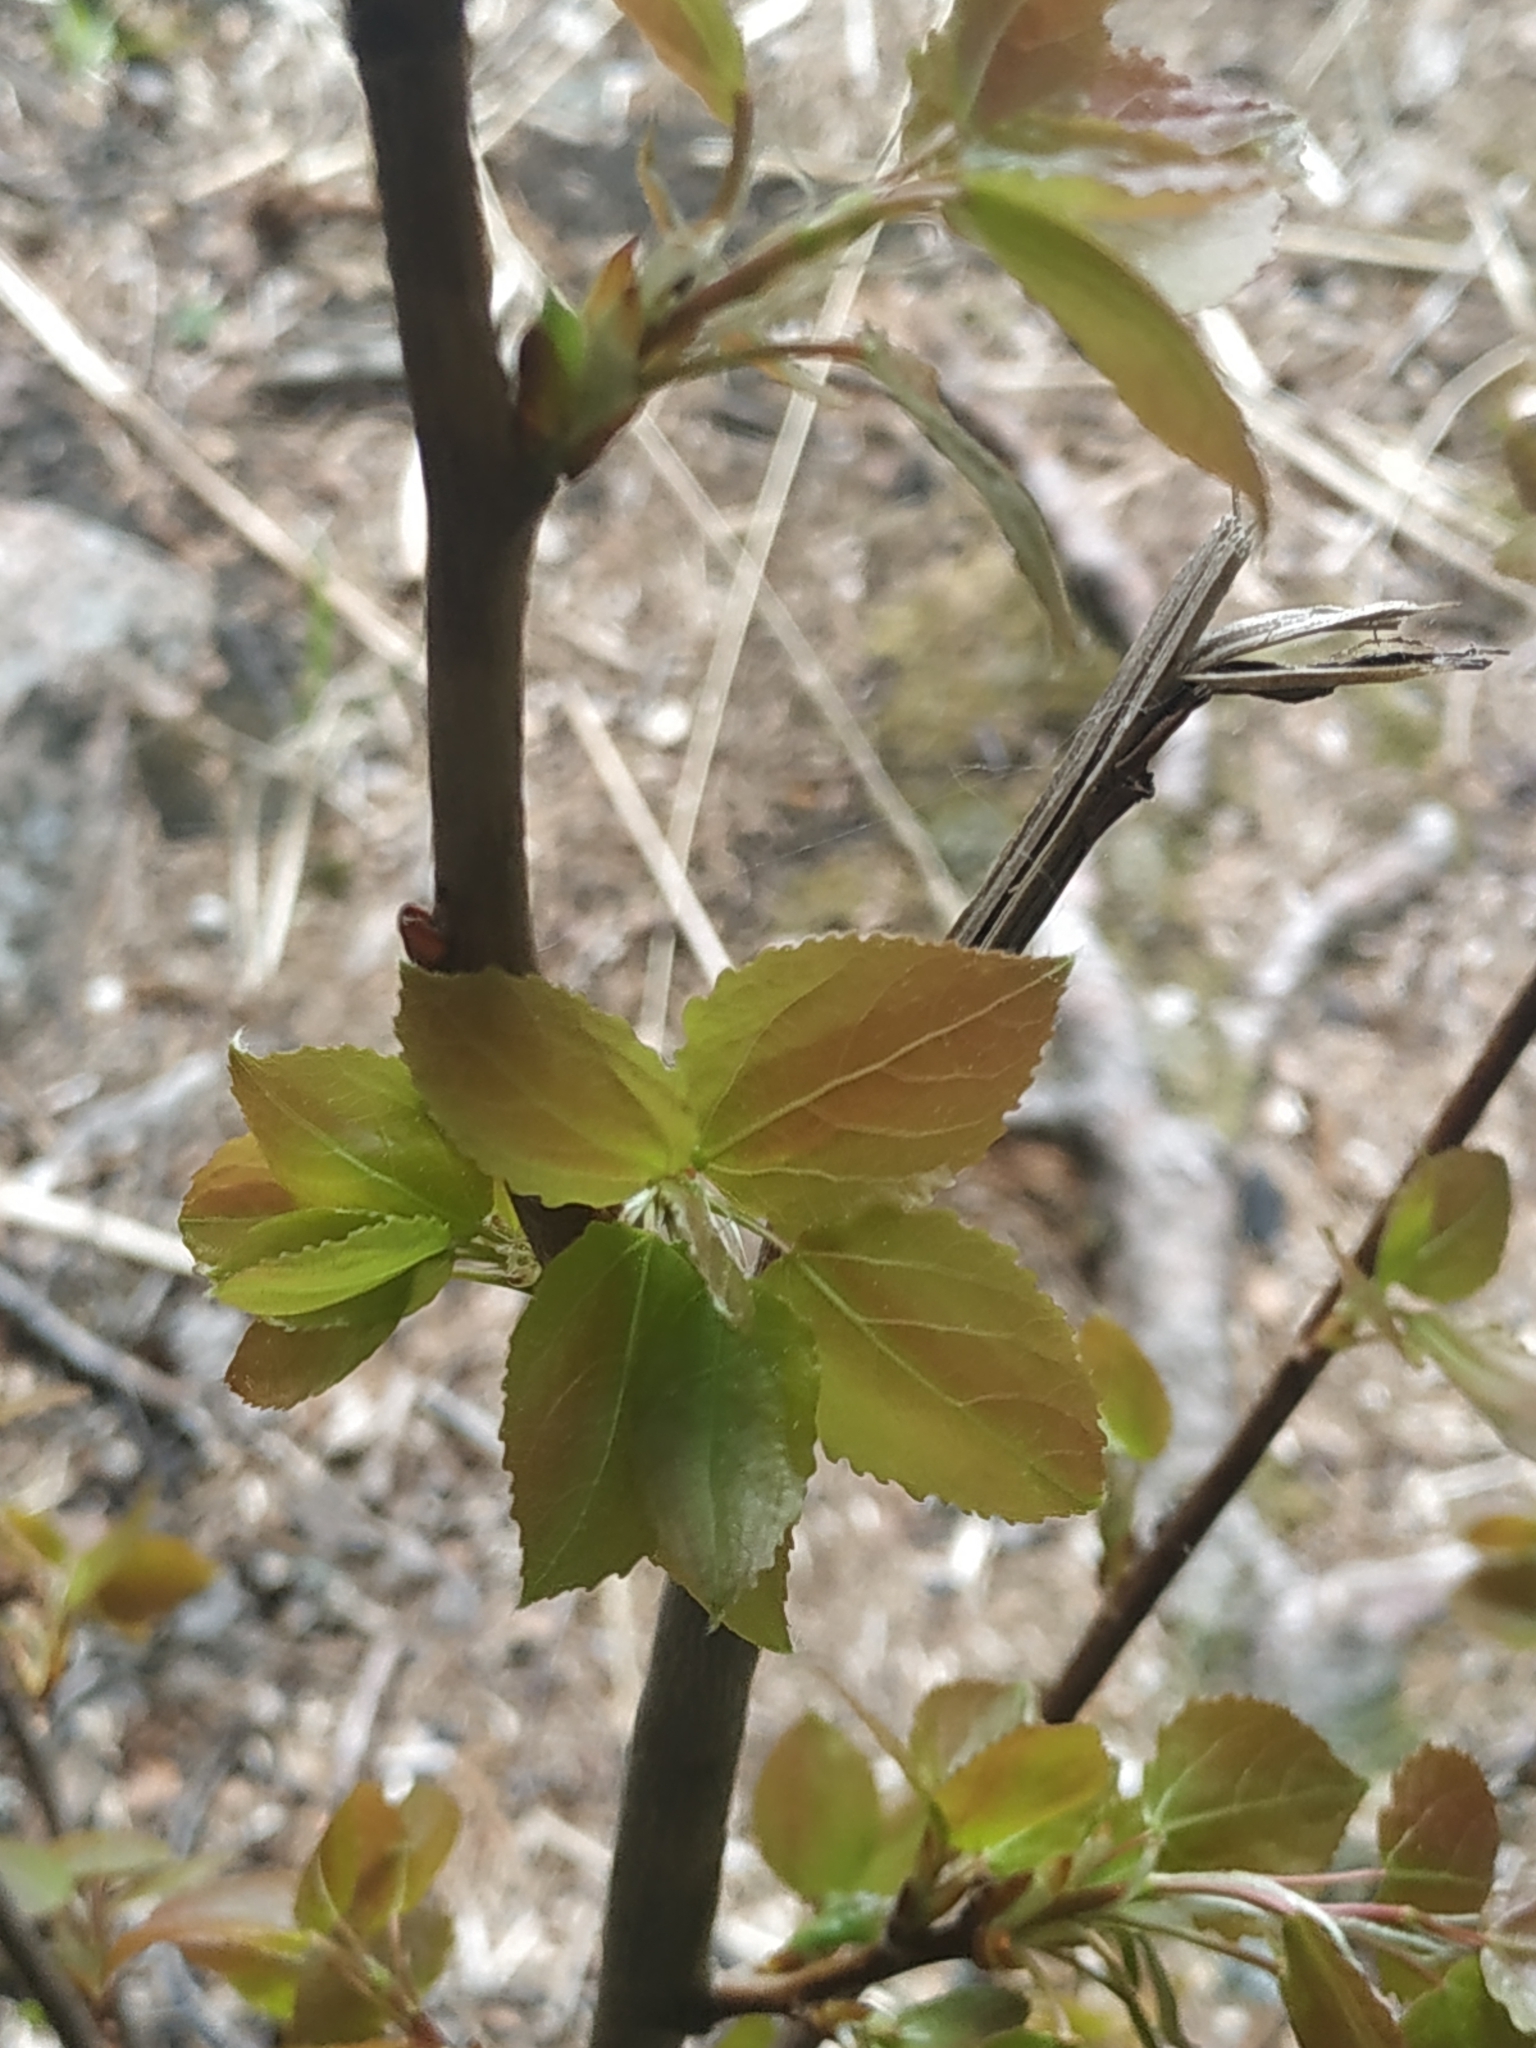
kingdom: Plantae
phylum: Tracheophyta
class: Magnoliopsida
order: Malpighiales
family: Salicaceae
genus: Populus
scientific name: Populus tremula
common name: European aspen
